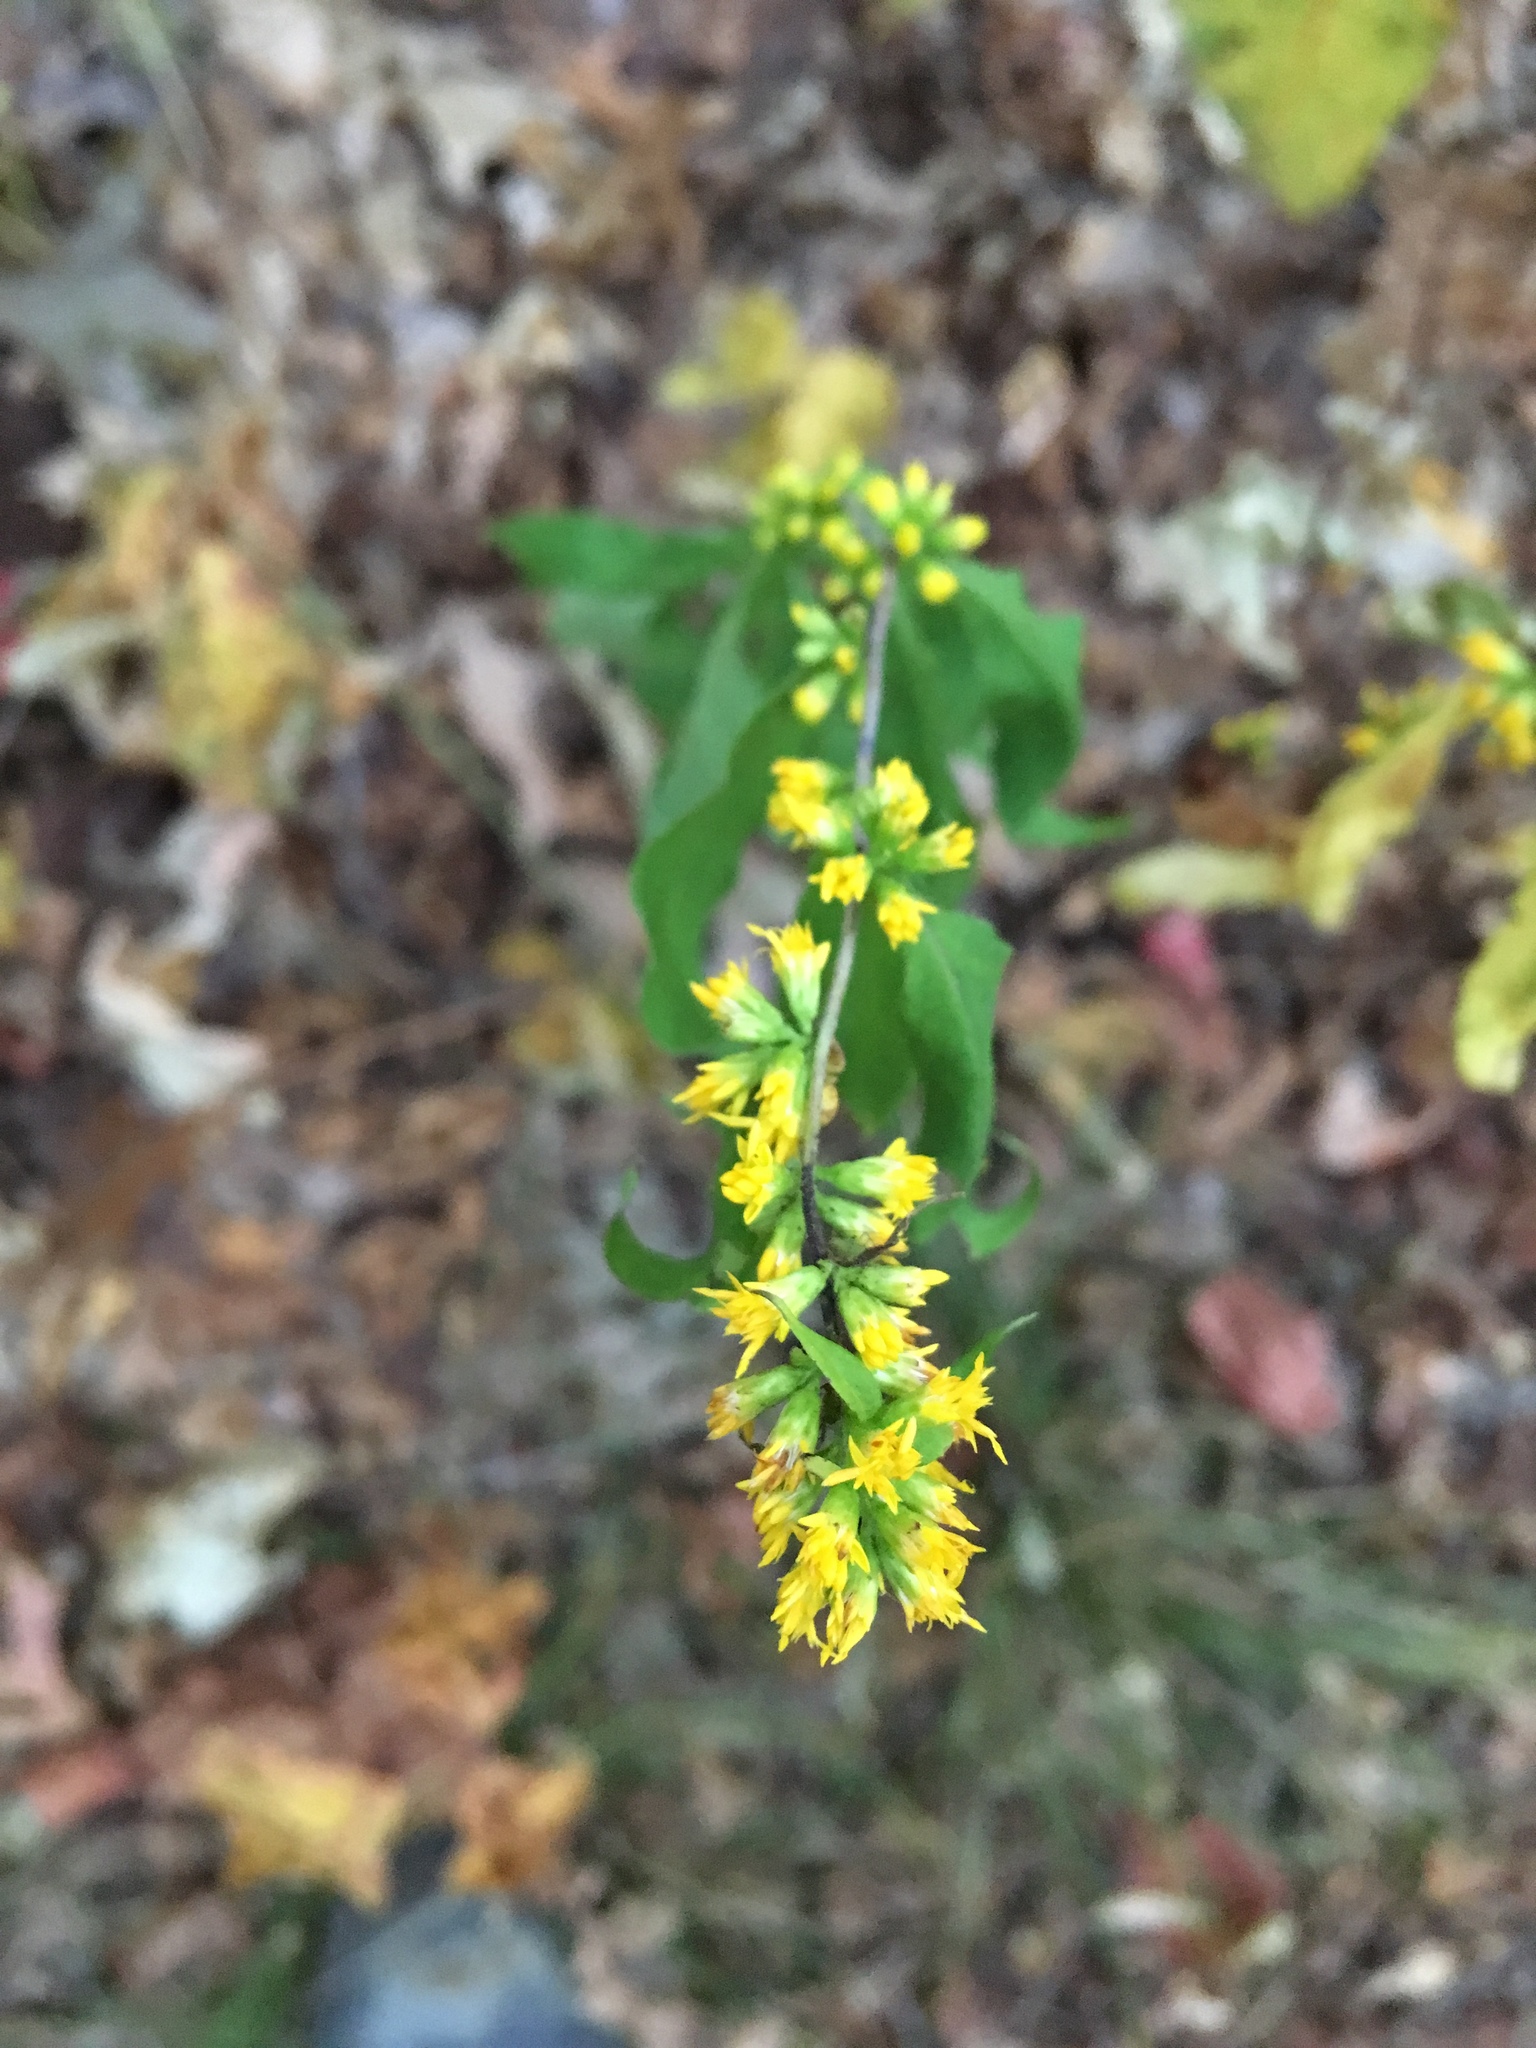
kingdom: Plantae
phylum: Tracheophyta
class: Magnoliopsida
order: Asterales
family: Asteraceae
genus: Solidago
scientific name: Solidago caesia
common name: Woodland goldenrod
